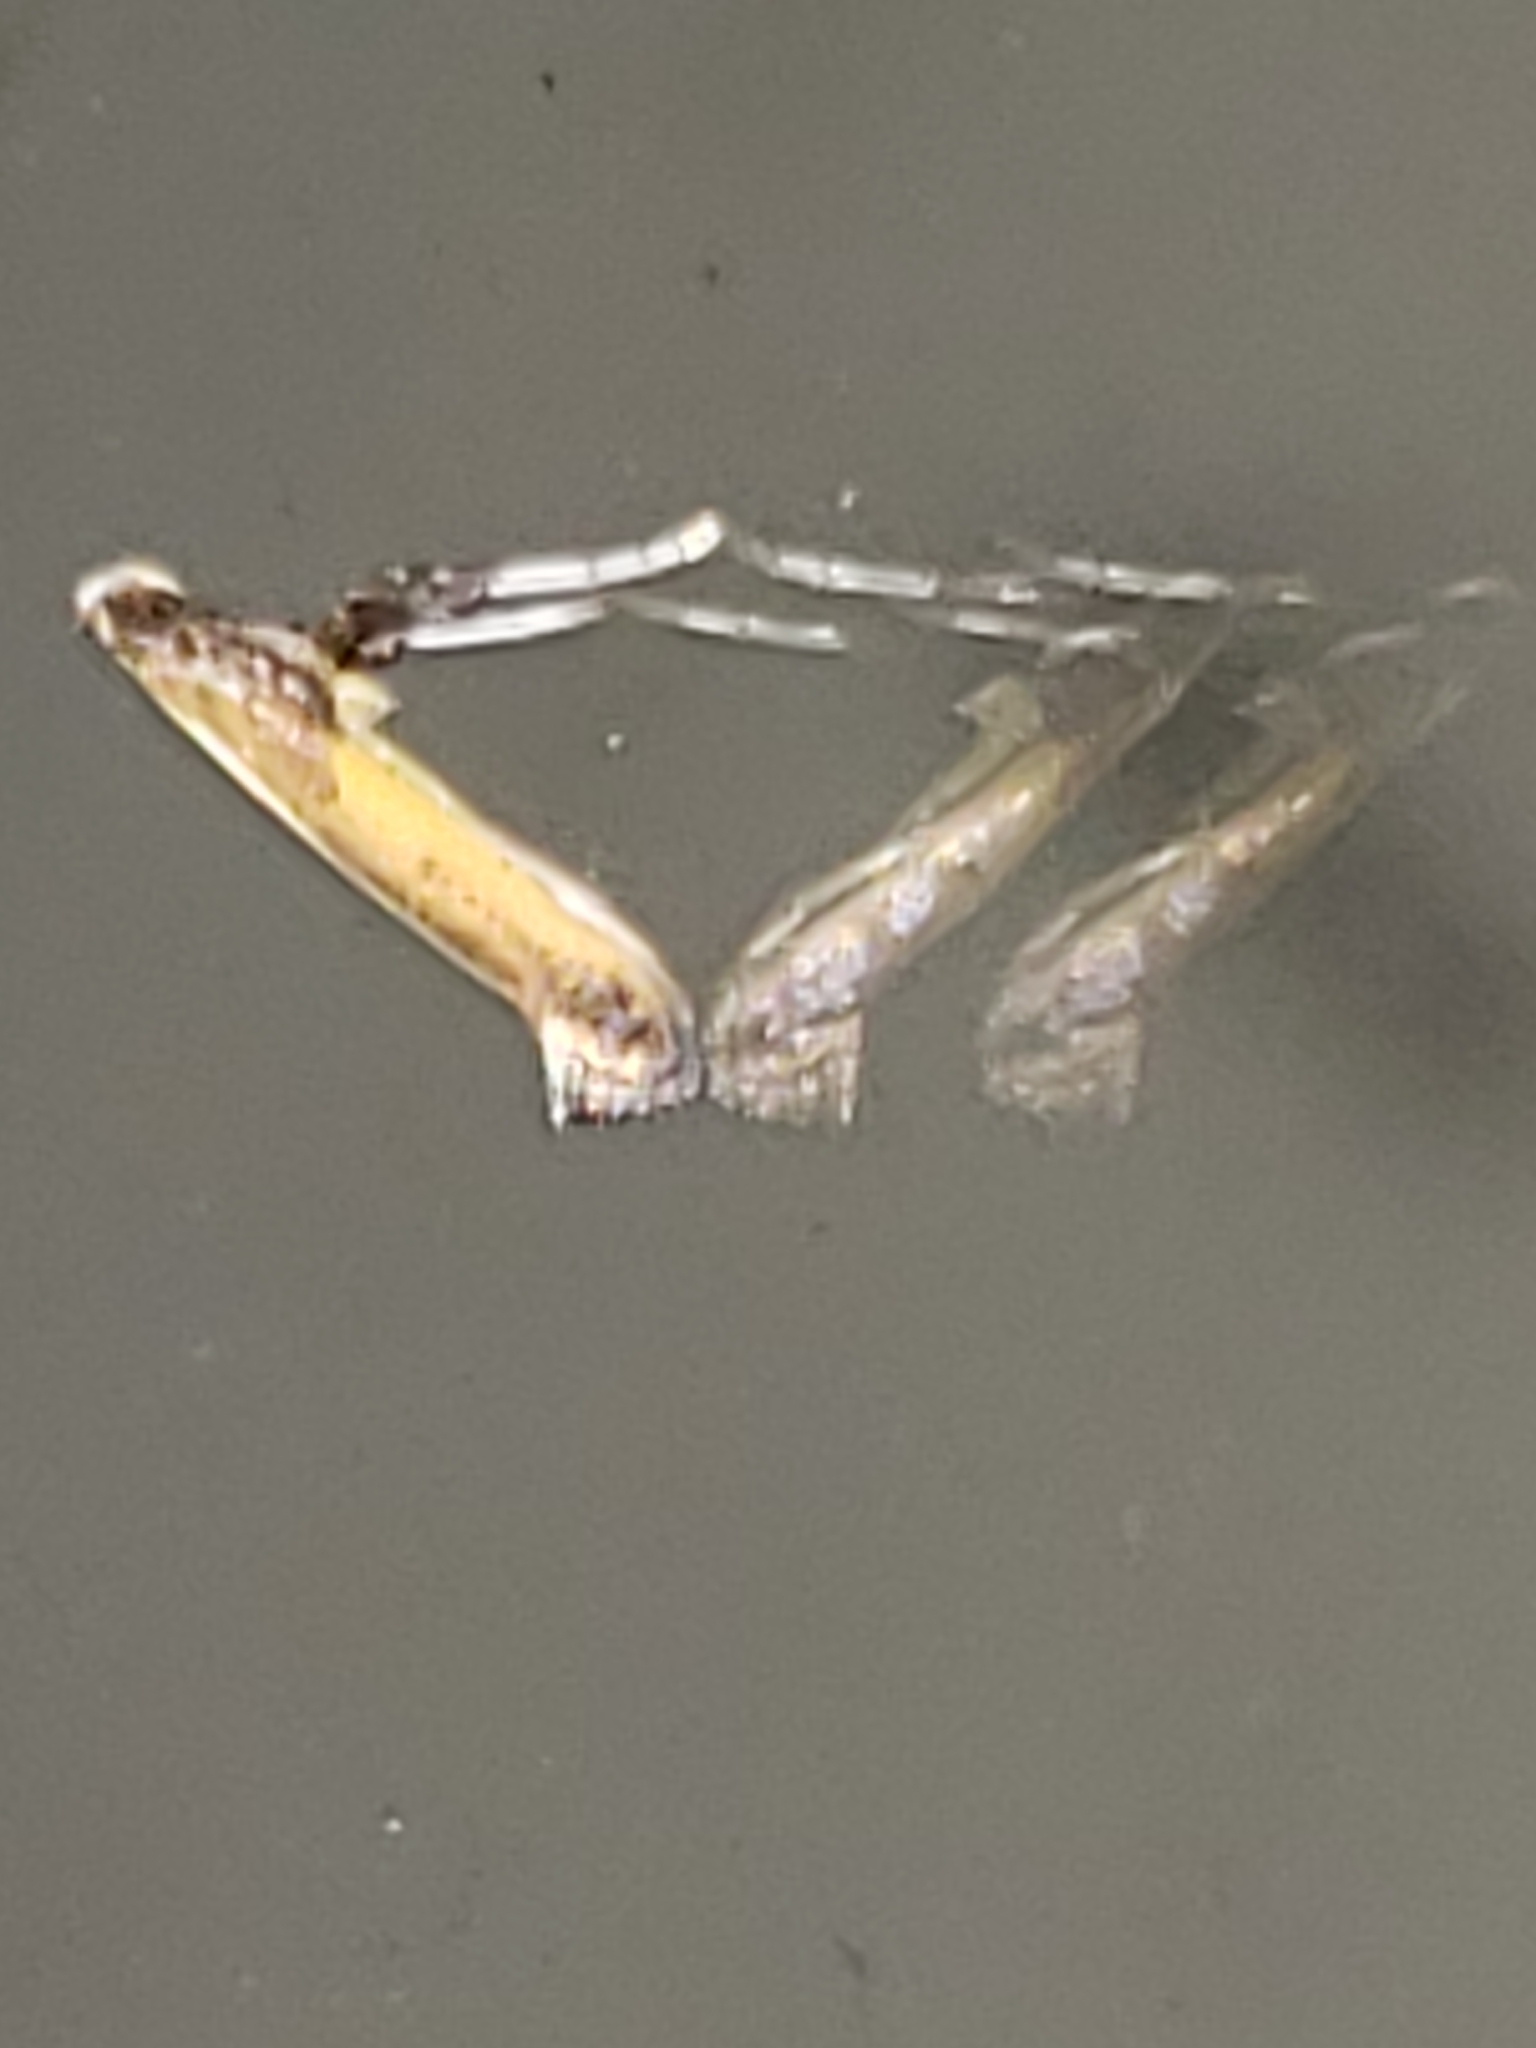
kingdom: Animalia
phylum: Arthropoda
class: Insecta
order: Lepidoptera
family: Gracillariidae
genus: Caloptilia
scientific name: Caloptilia azaleella
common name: Azalea leafminer
